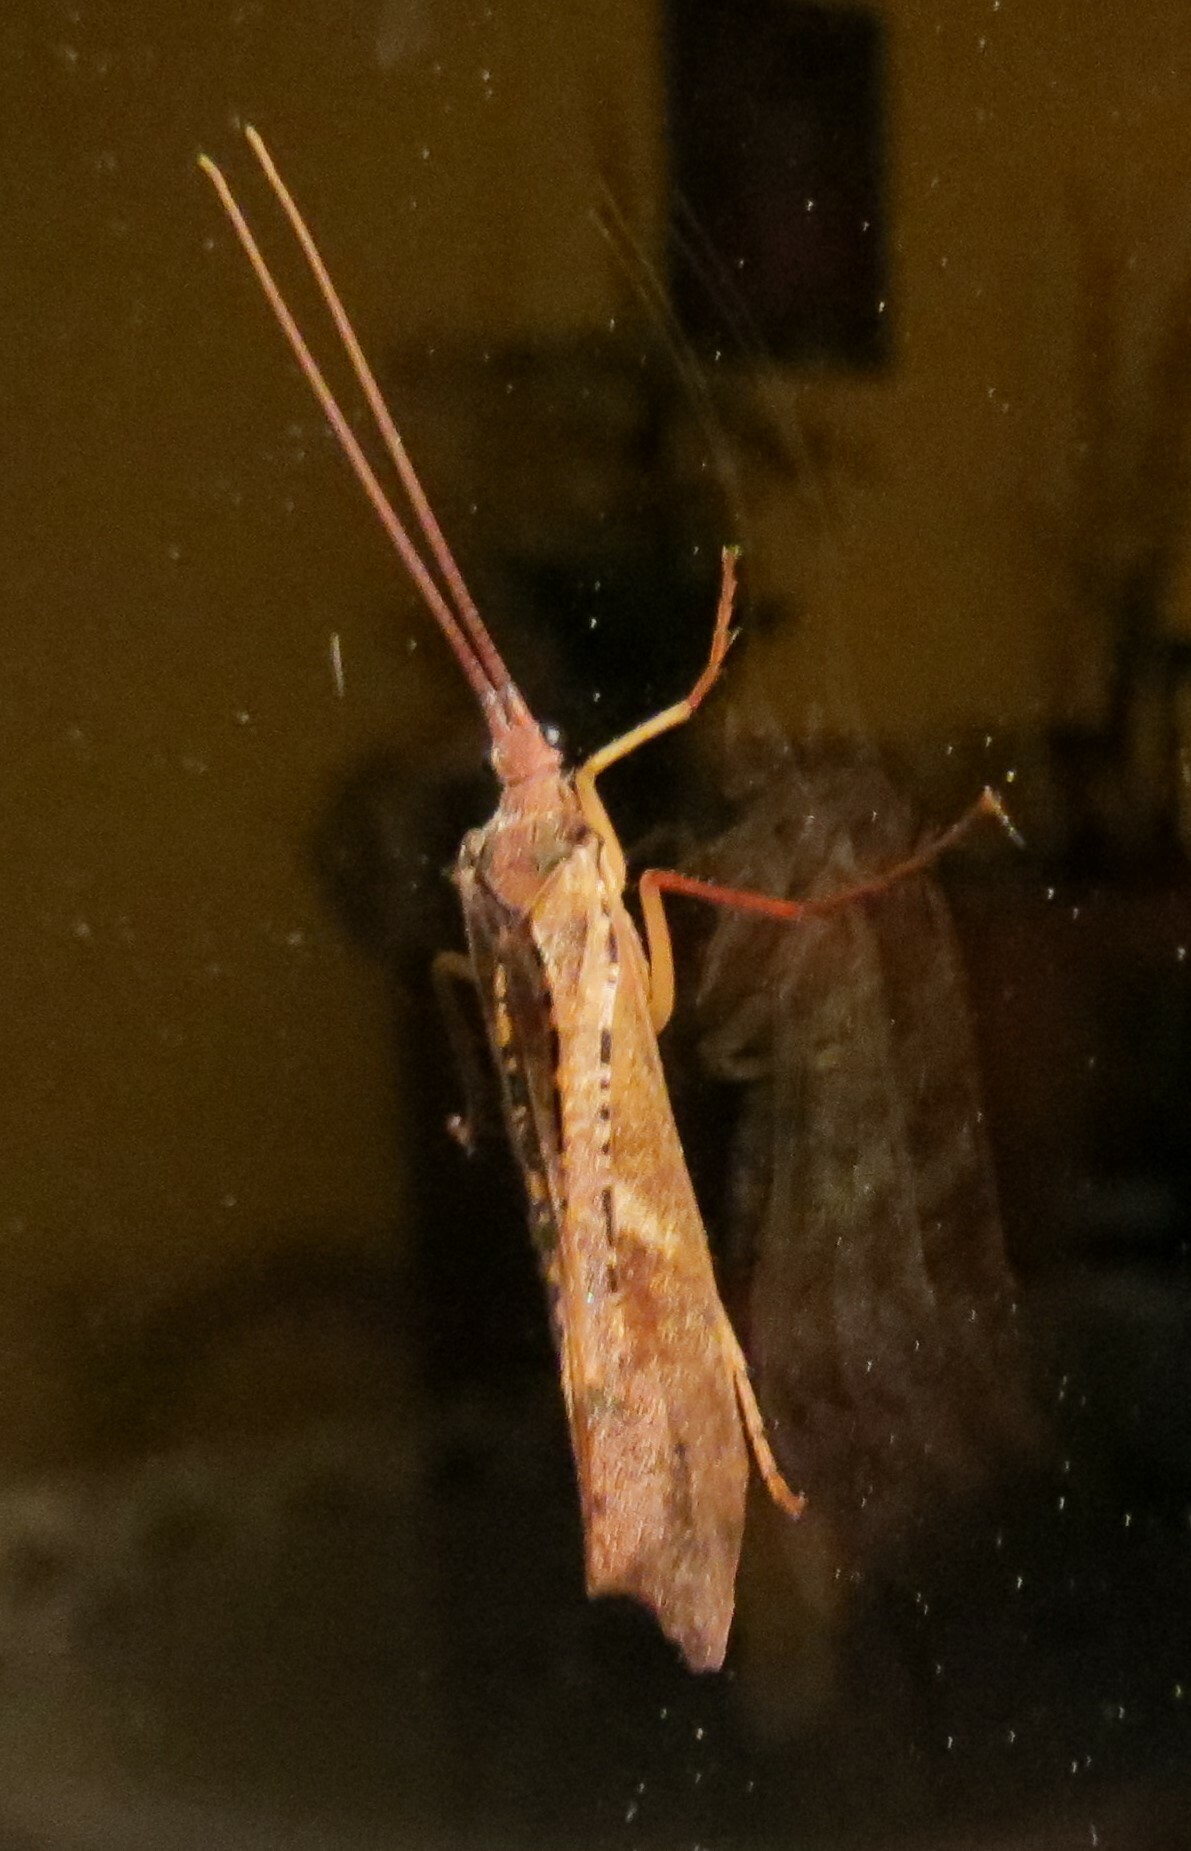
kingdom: Animalia
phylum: Arthropoda
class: Insecta
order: Trichoptera
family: Limnephilidae
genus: Nemotaulius
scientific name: Nemotaulius hostilis
